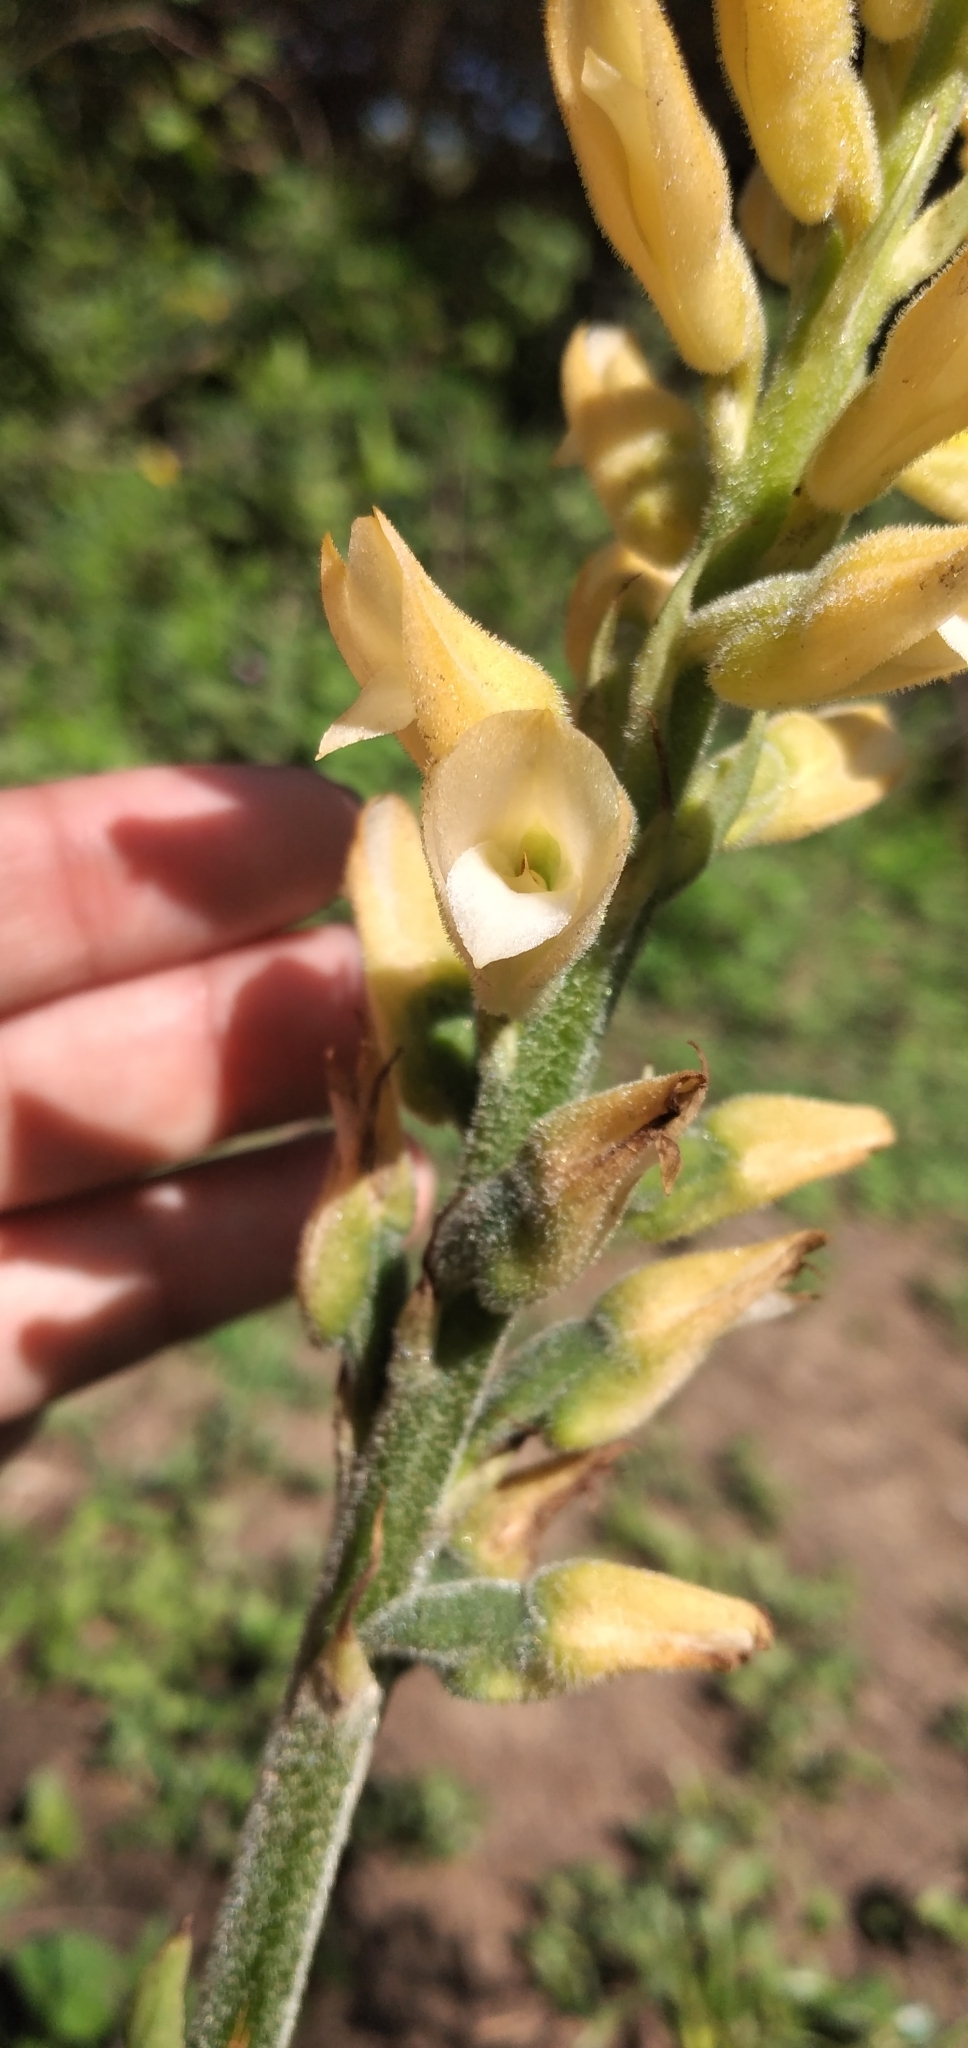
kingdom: Plantae
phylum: Tracheophyta
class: Liliopsida
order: Asparagales
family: Orchidaceae
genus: Sacoila
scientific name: Sacoila lanceolata
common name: Leafless beaked ladiestresses
